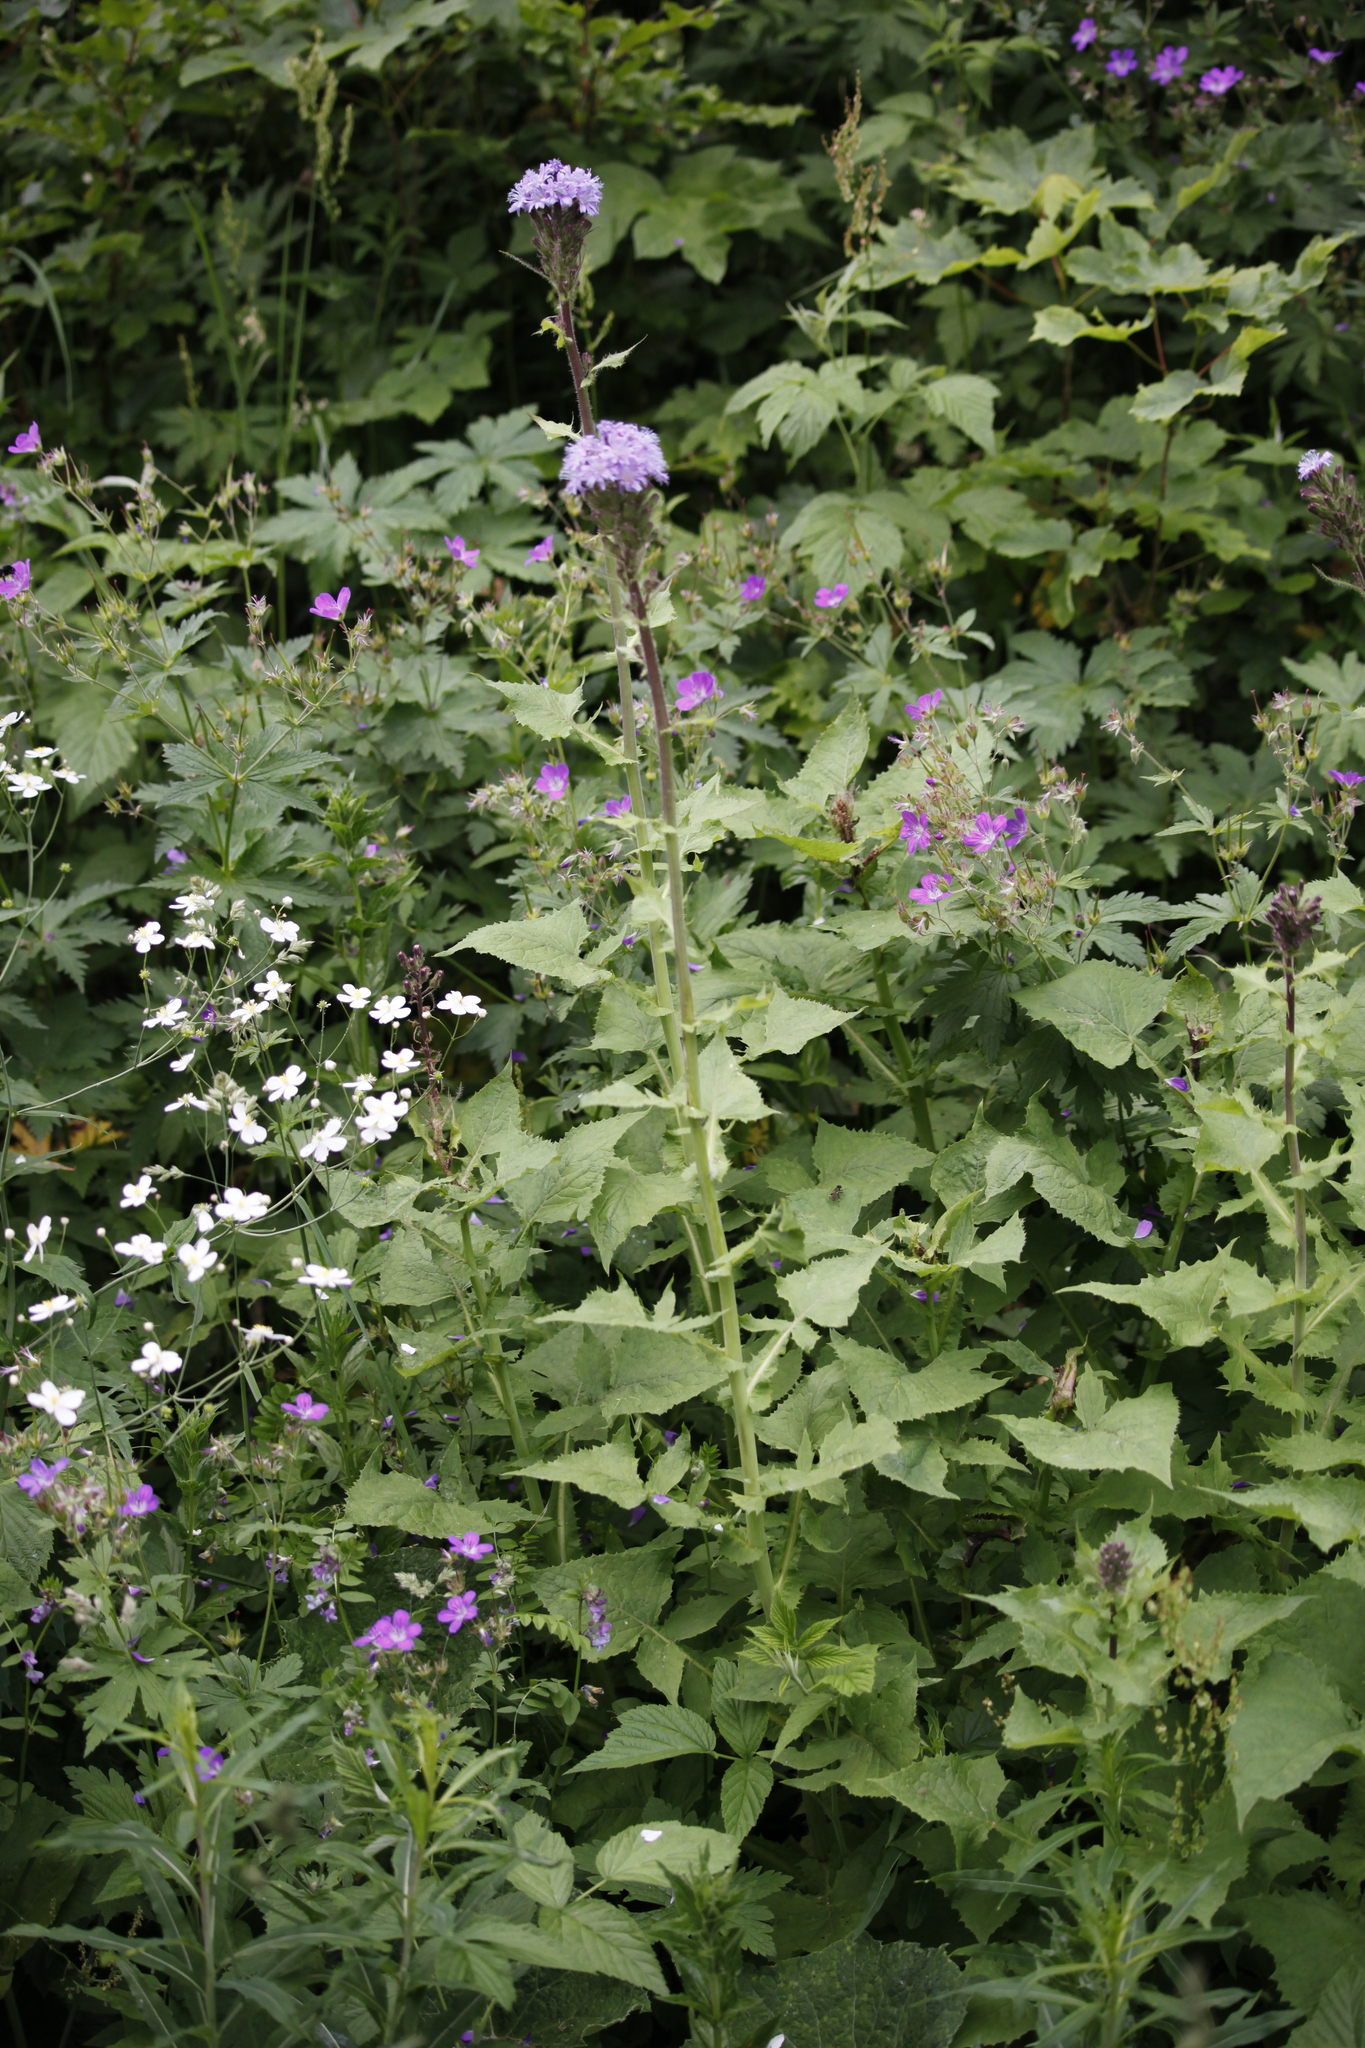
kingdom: Plantae
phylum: Tracheophyta
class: Magnoliopsida
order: Asterales
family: Asteraceae
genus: Cicerbita
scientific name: Cicerbita alpina
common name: Alpine blue-sow-thistle
